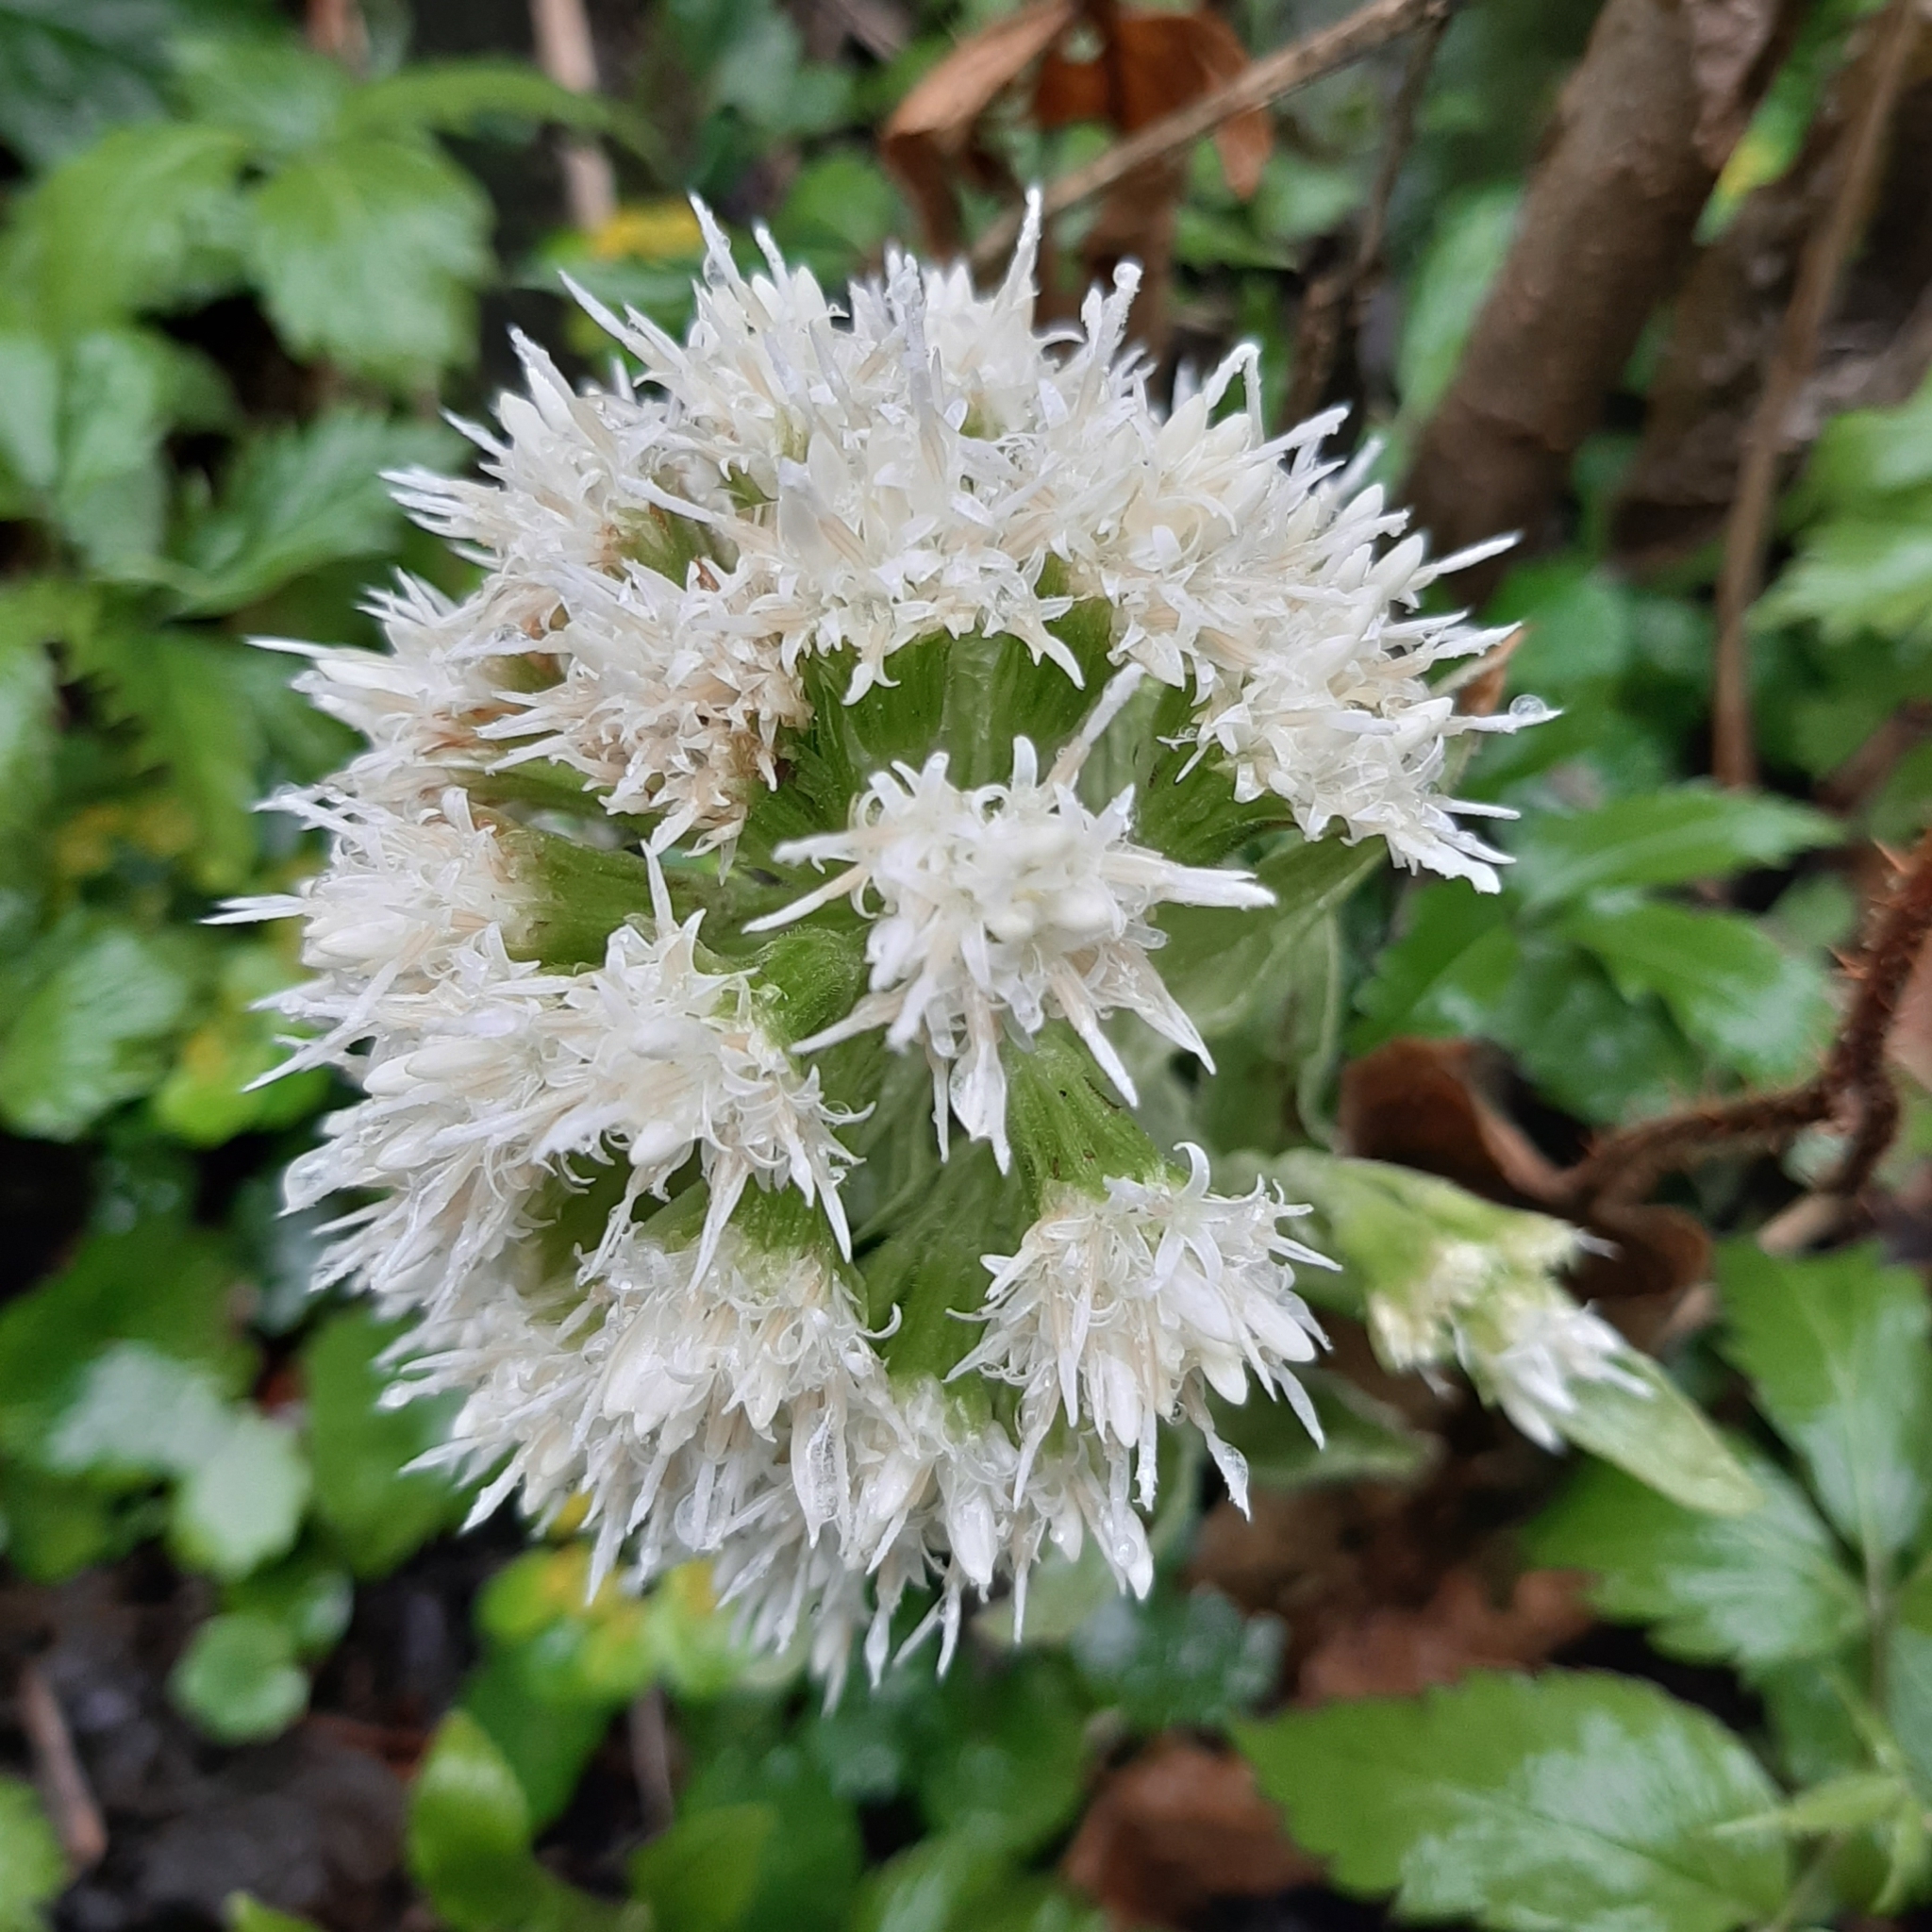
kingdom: Plantae
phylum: Tracheophyta
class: Magnoliopsida
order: Asterales
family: Asteraceae
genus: Petasites
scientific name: Petasites albus
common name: White butterbur
